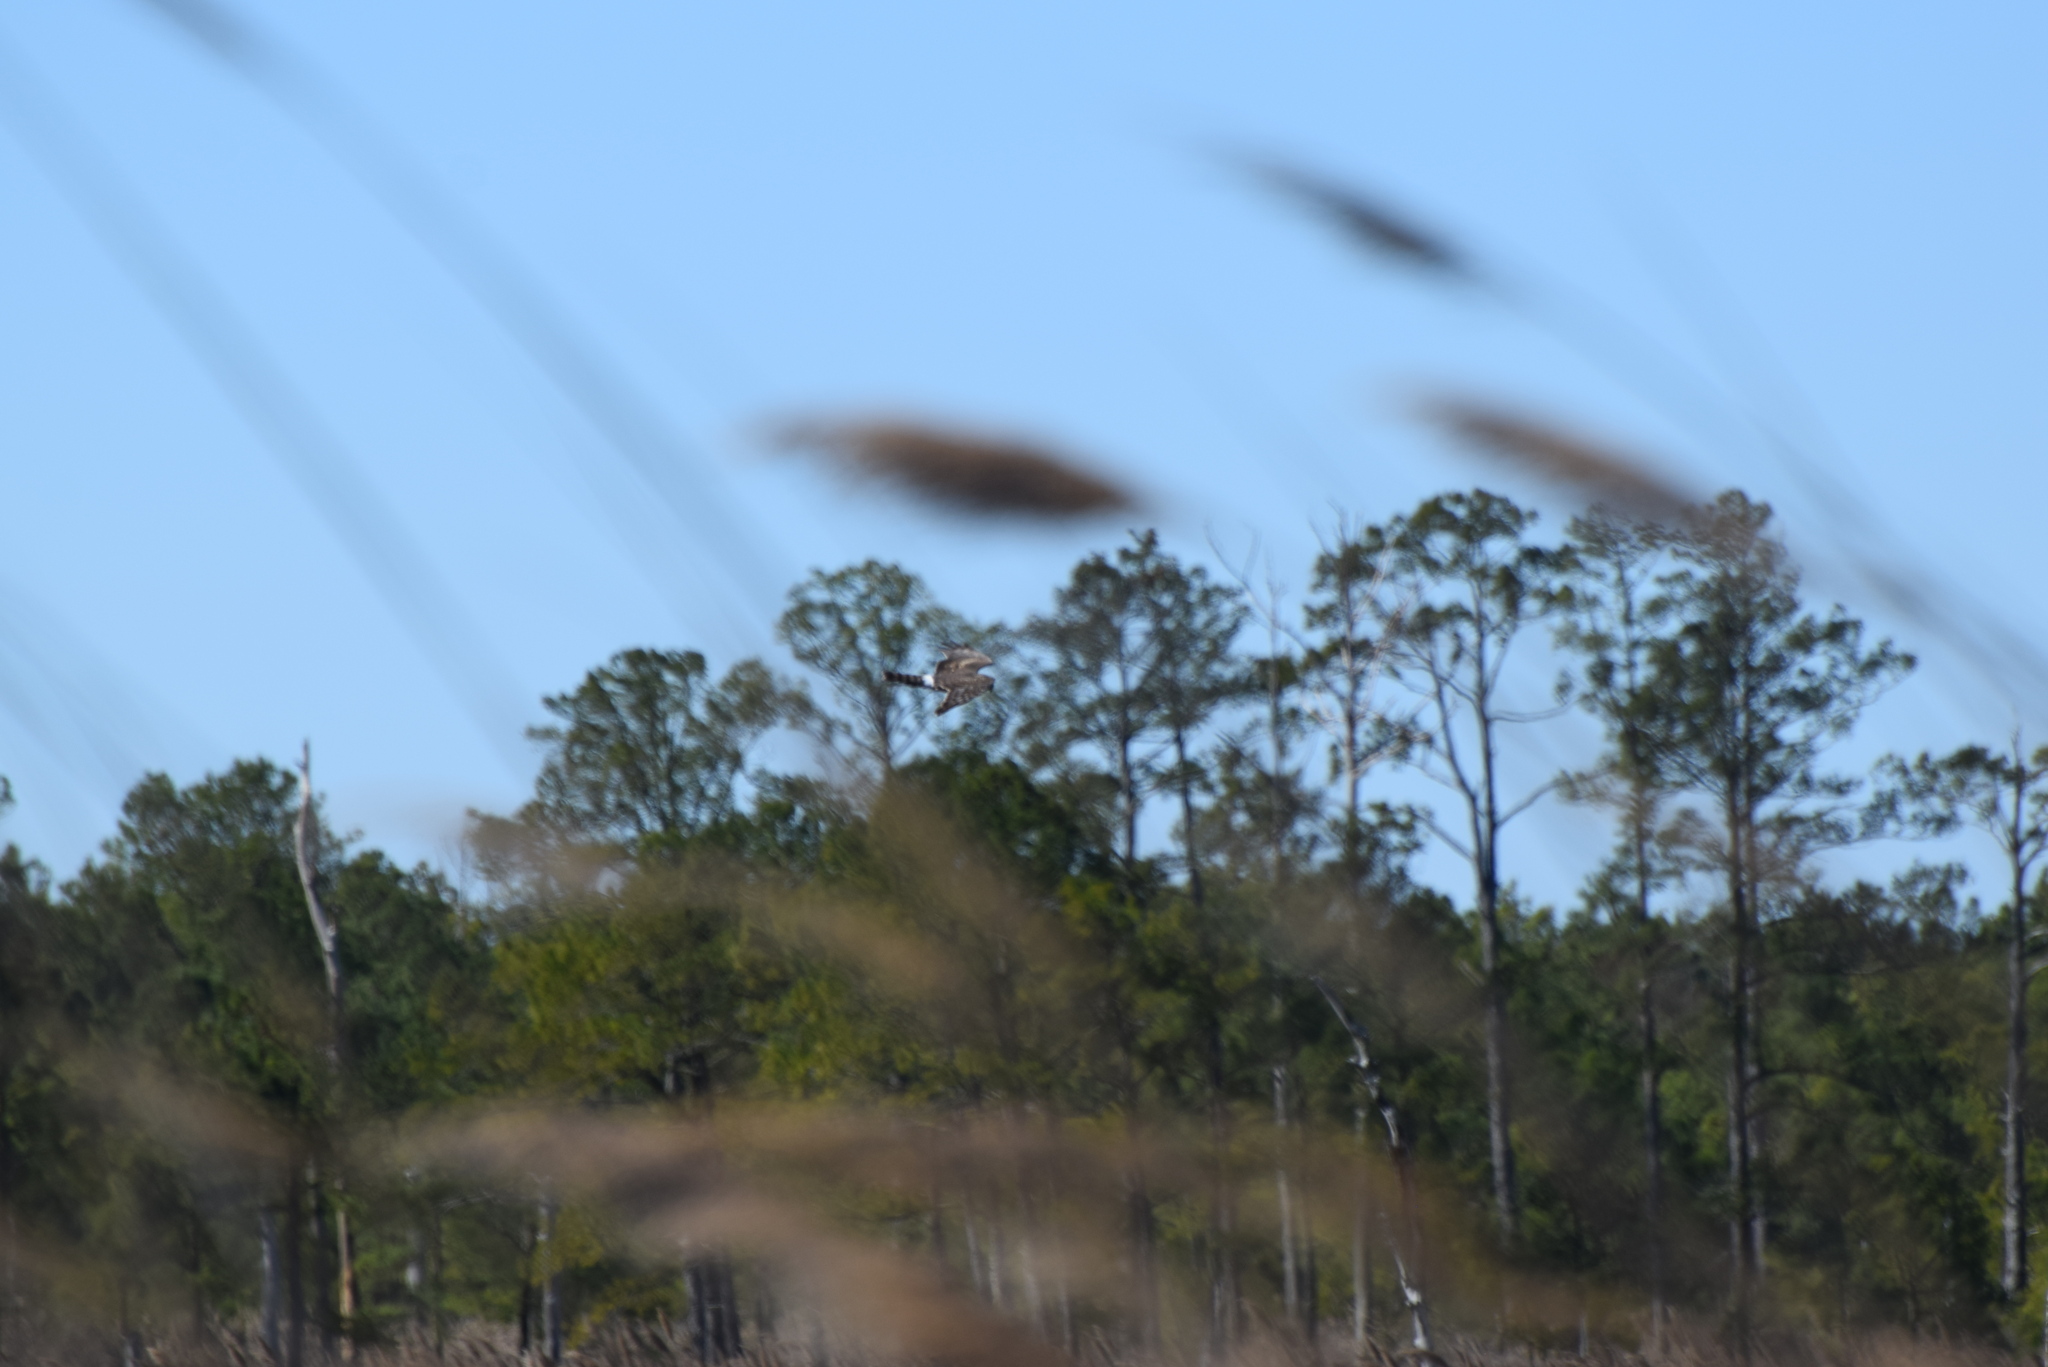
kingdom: Animalia
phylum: Chordata
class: Aves
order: Accipitriformes
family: Accipitridae
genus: Circus
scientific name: Circus cyaneus
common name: Hen harrier
